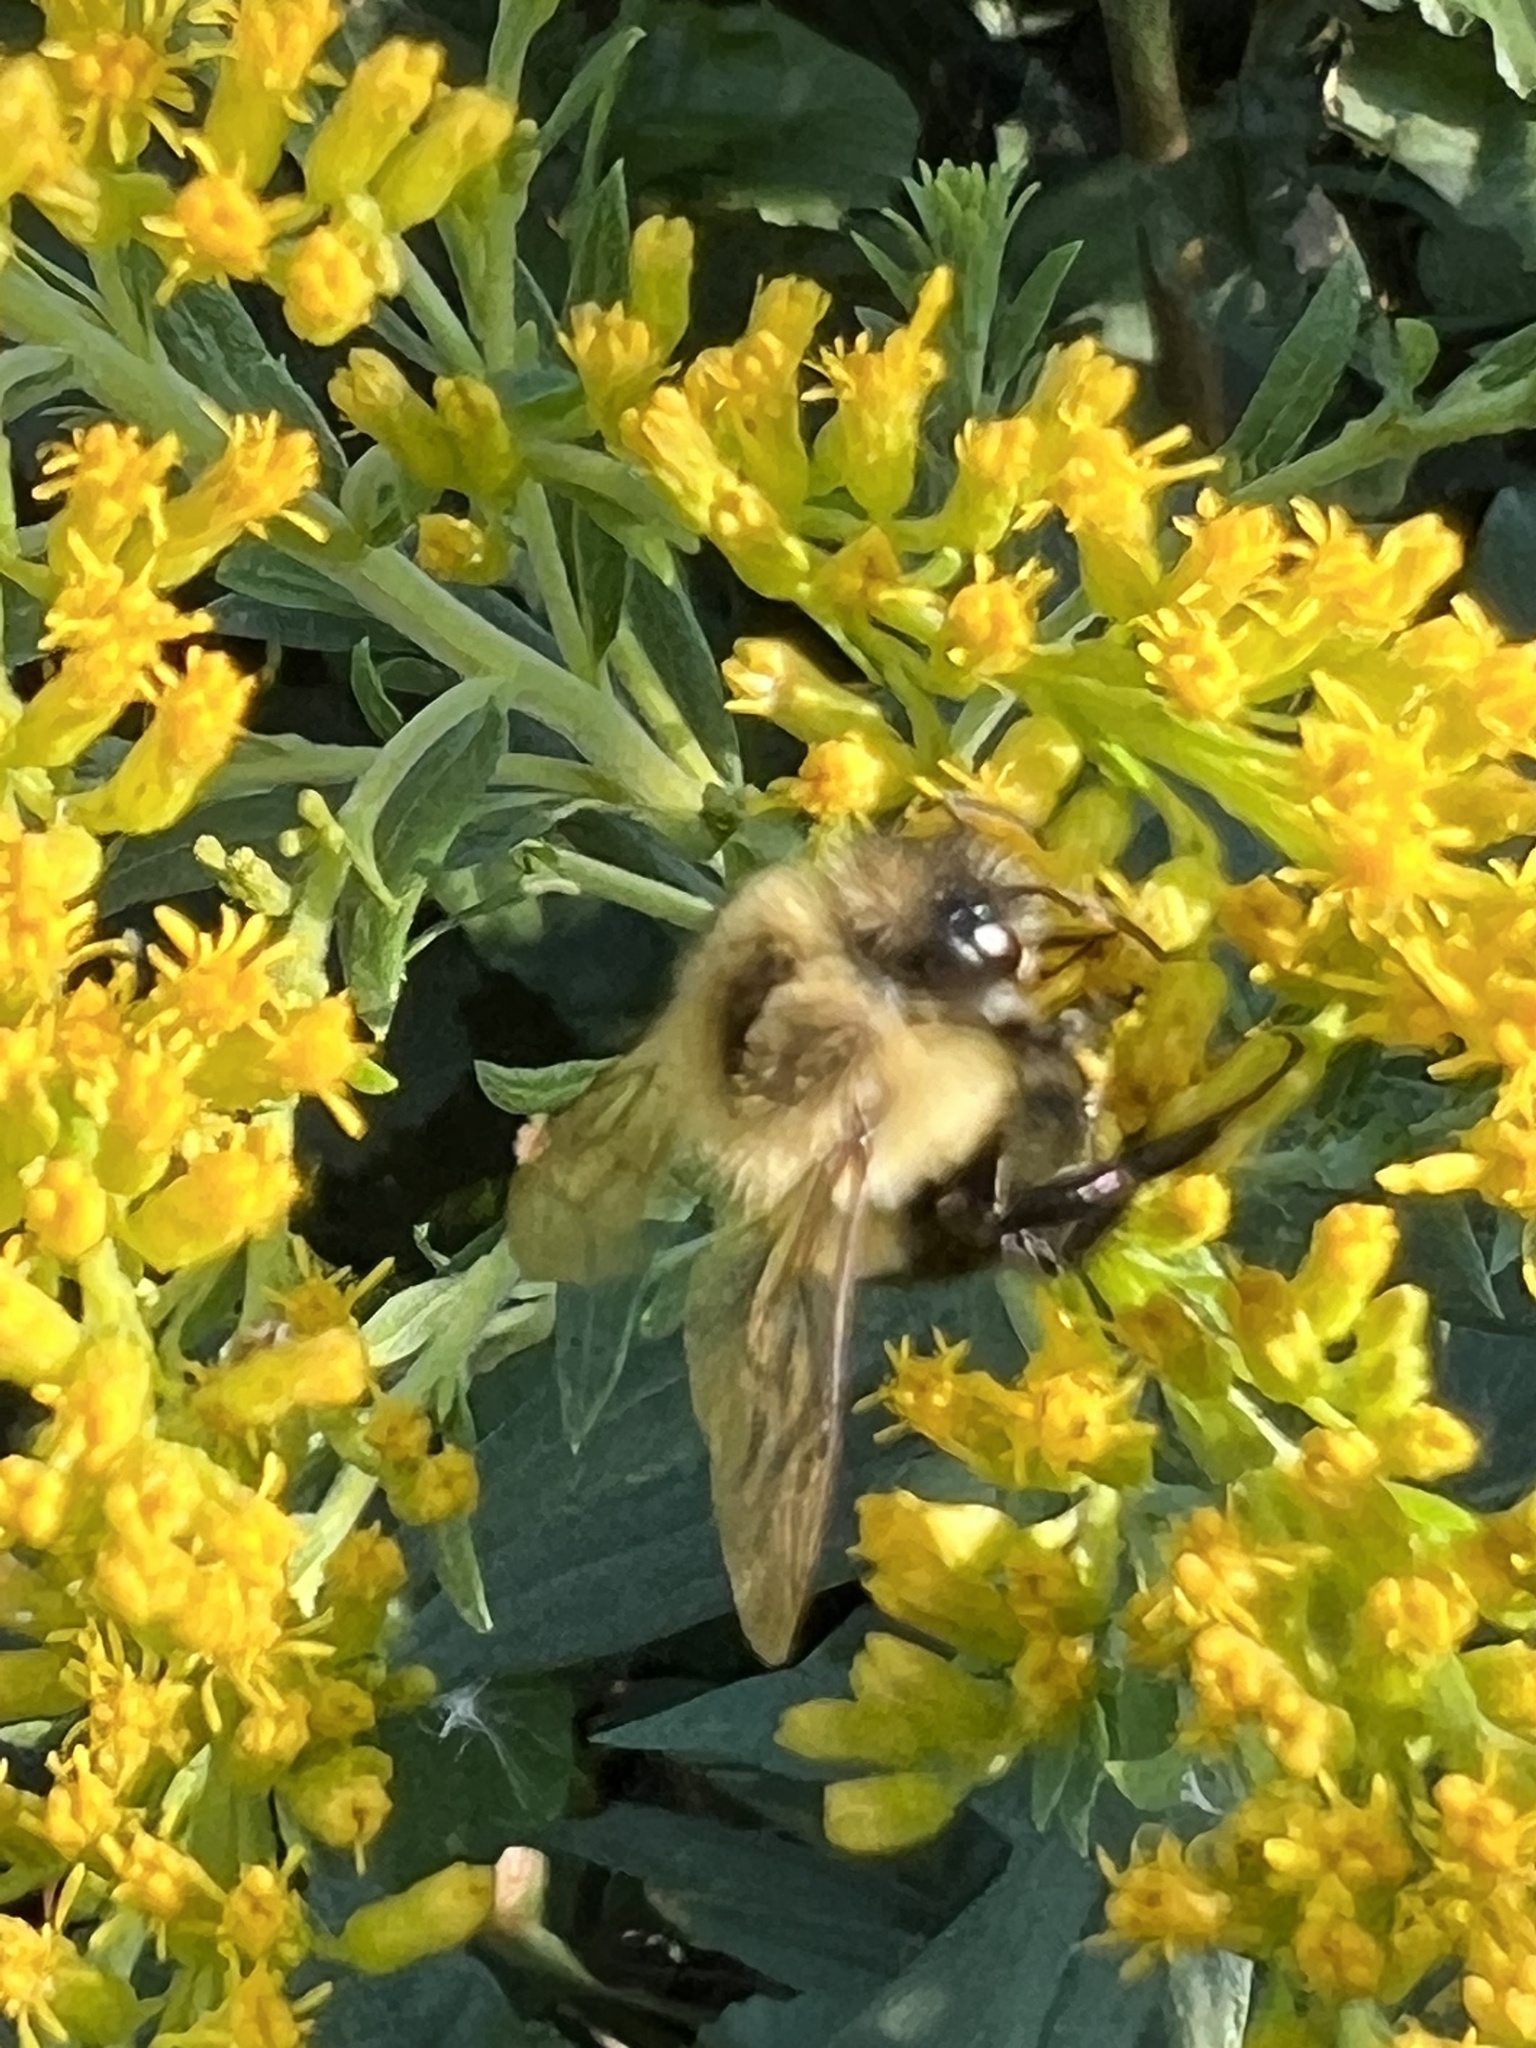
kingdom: Animalia
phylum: Arthropoda
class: Insecta
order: Hymenoptera
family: Apidae
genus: Bombus
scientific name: Bombus impatiens
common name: Common eastern bumble bee
